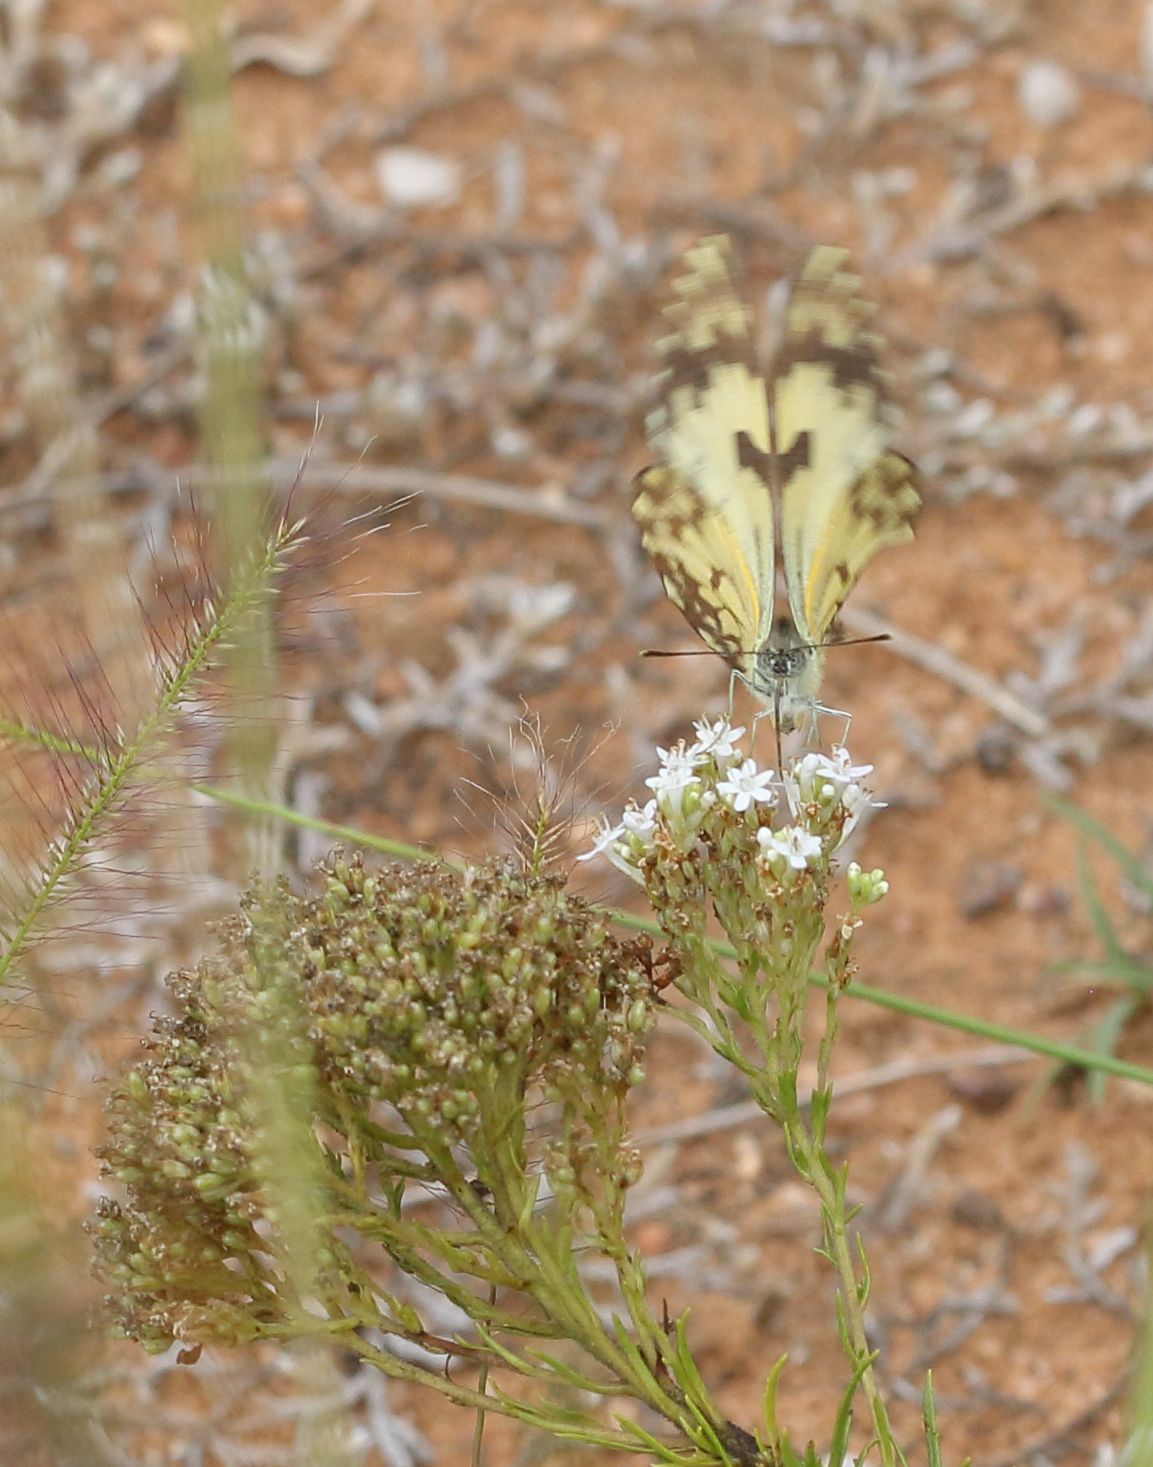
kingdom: Animalia
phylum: Arthropoda
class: Insecta
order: Lepidoptera
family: Pieridae
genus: Belenois
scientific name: Belenois gidica
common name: Pointed caper white
